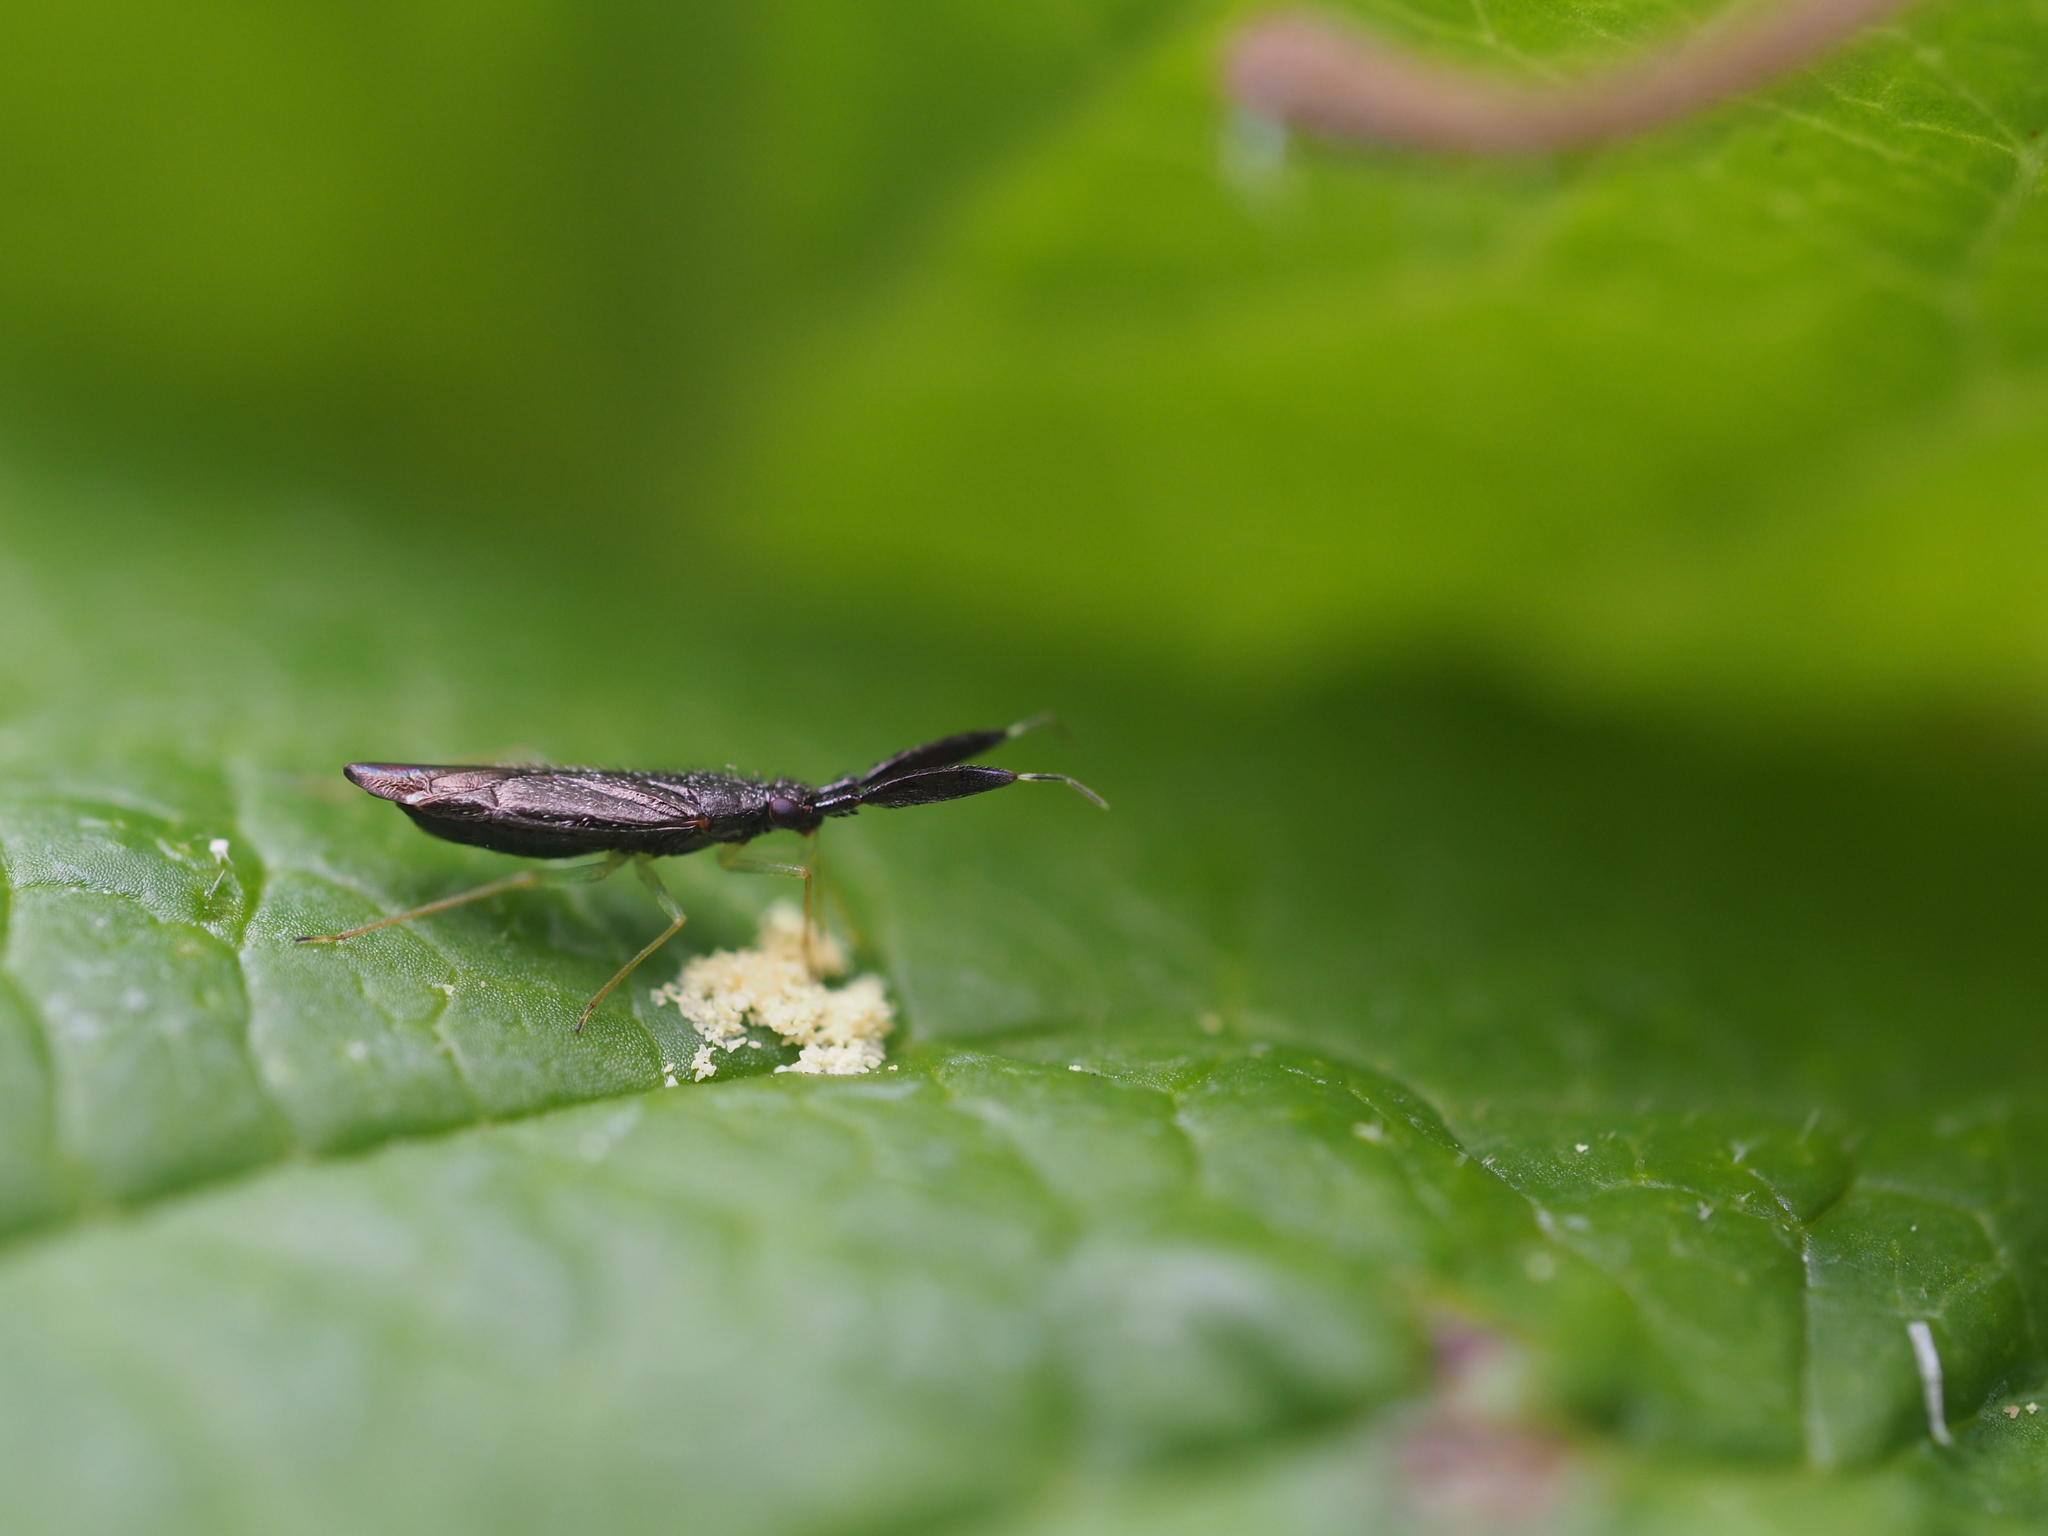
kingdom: Animalia
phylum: Arthropoda
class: Insecta
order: Hemiptera
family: Miridae
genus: Heterotoma
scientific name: Heterotoma planicornis
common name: Plant bug
